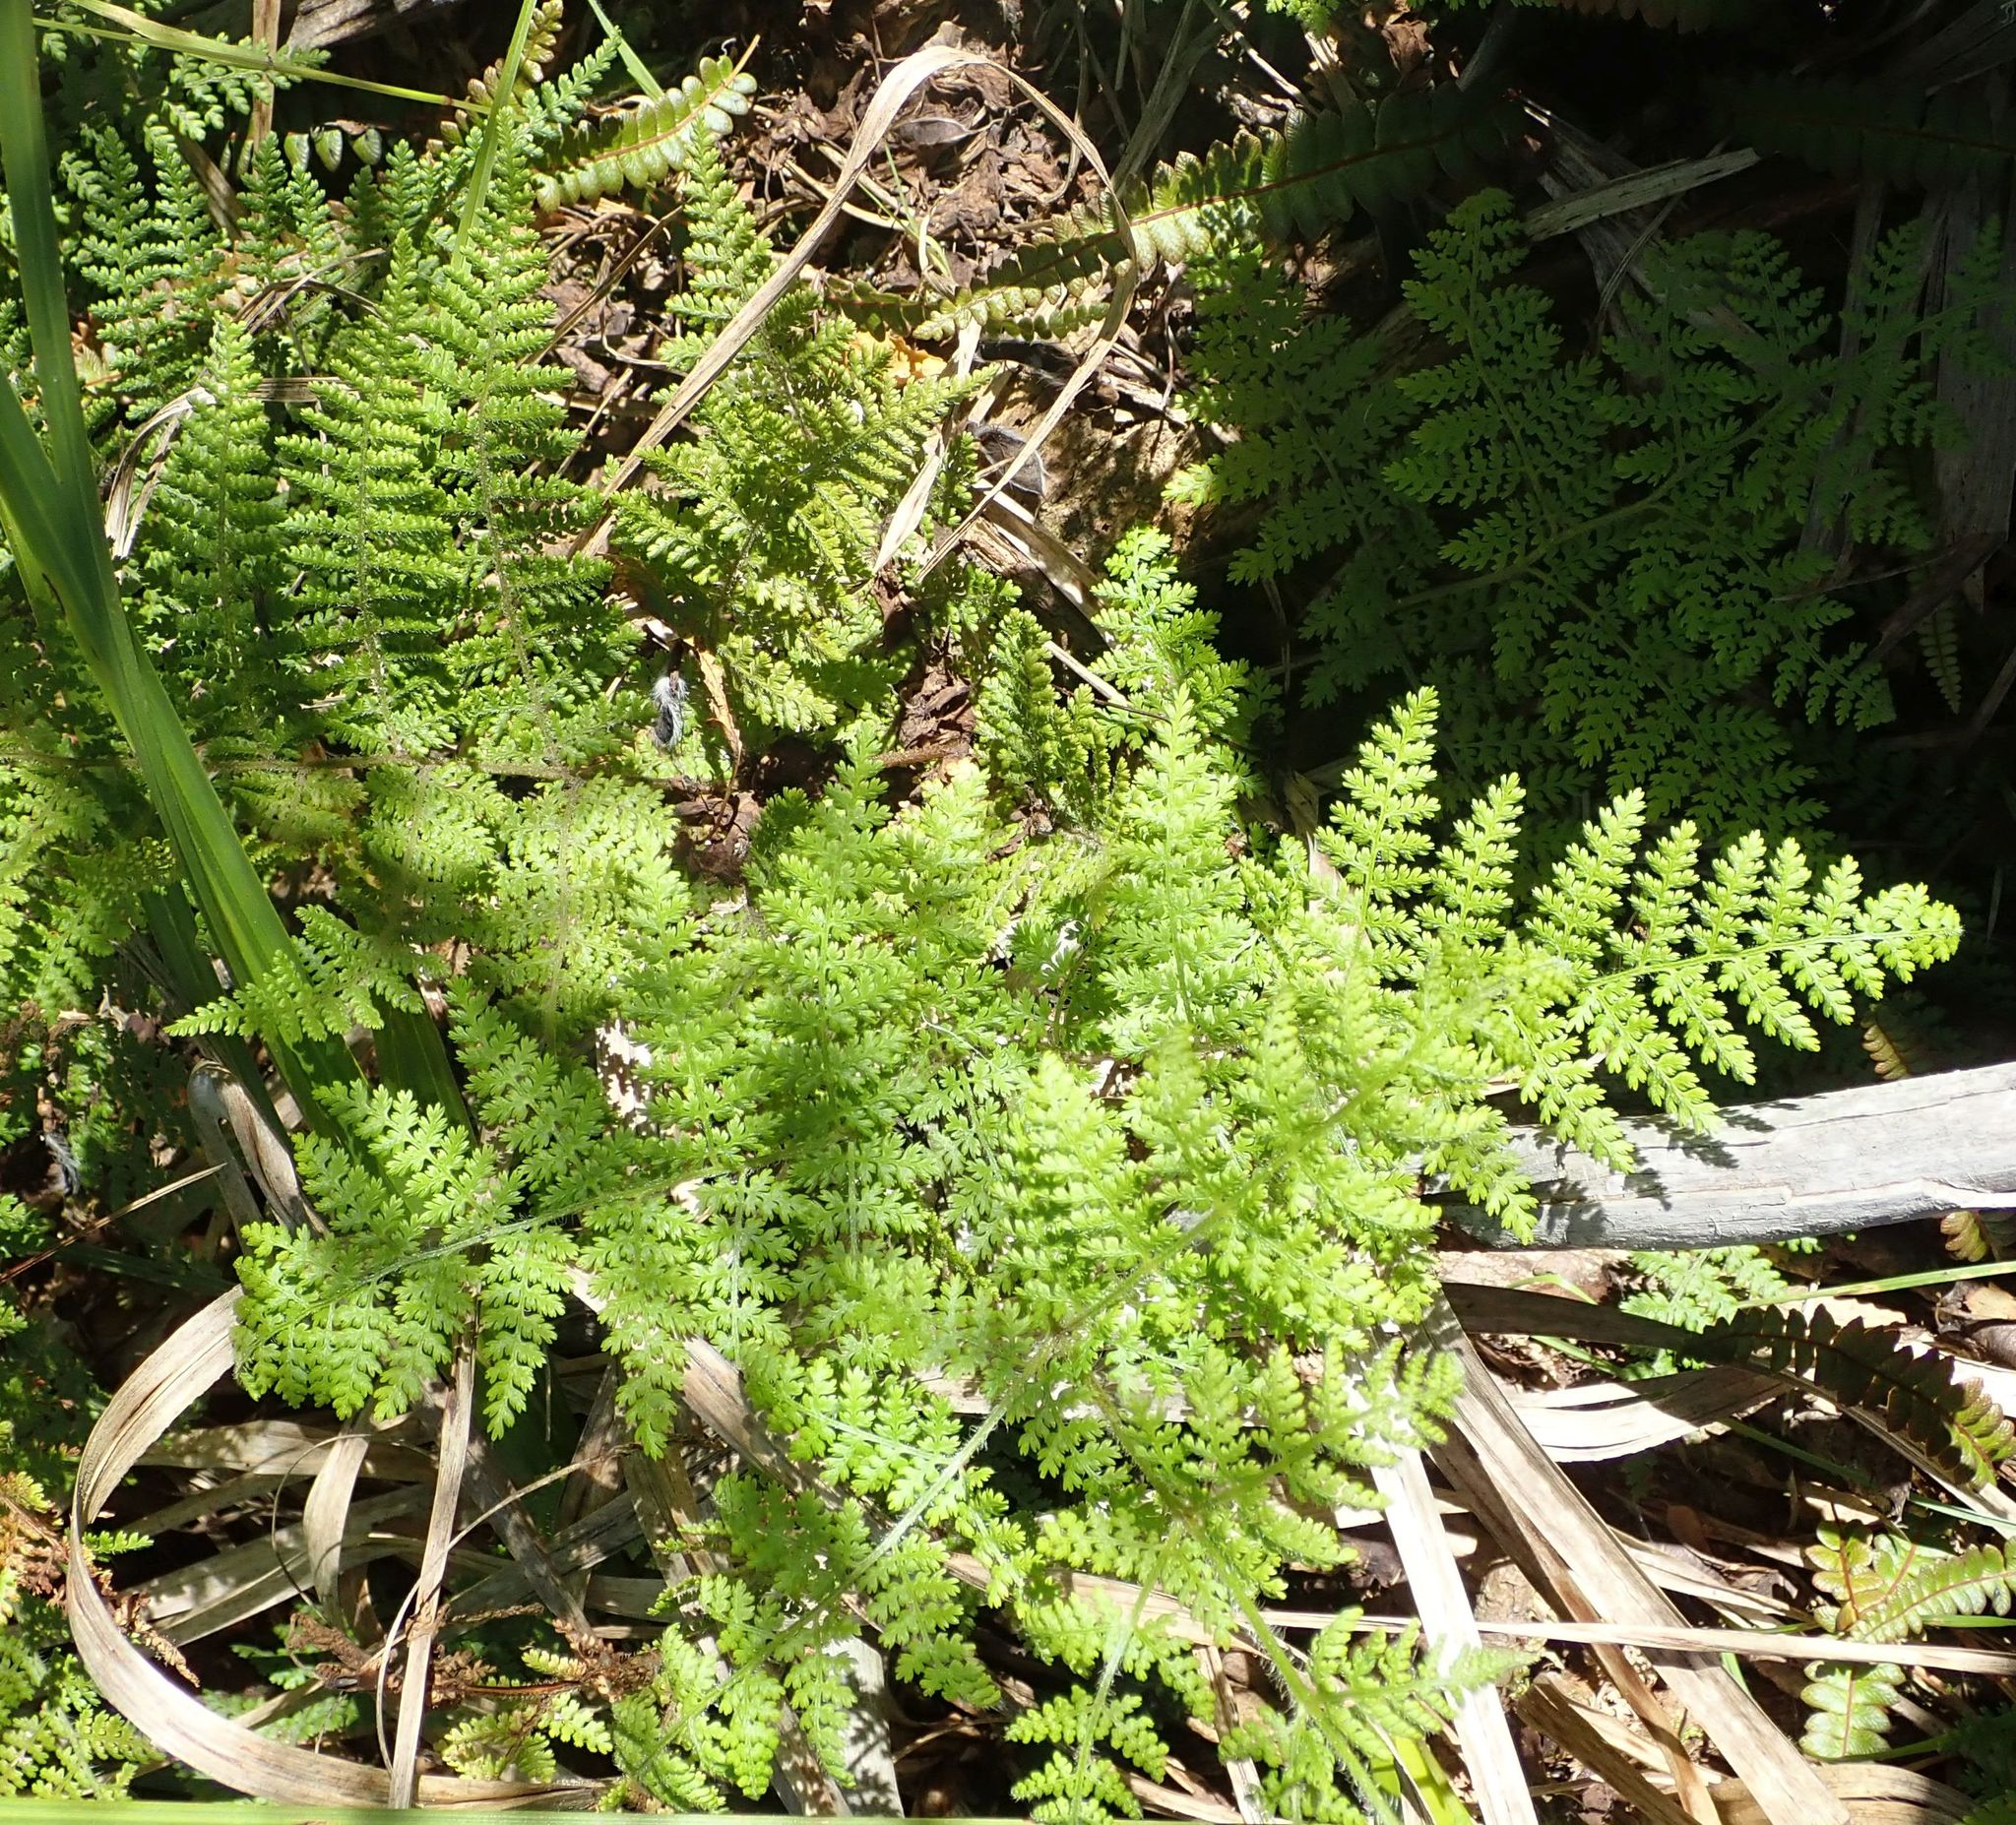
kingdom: Plantae
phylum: Tracheophyta
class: Polypodiopsida
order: Polypodiales
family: Dennstaedtiaceae
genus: Hypolepis
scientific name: Hypolepis millefolium
